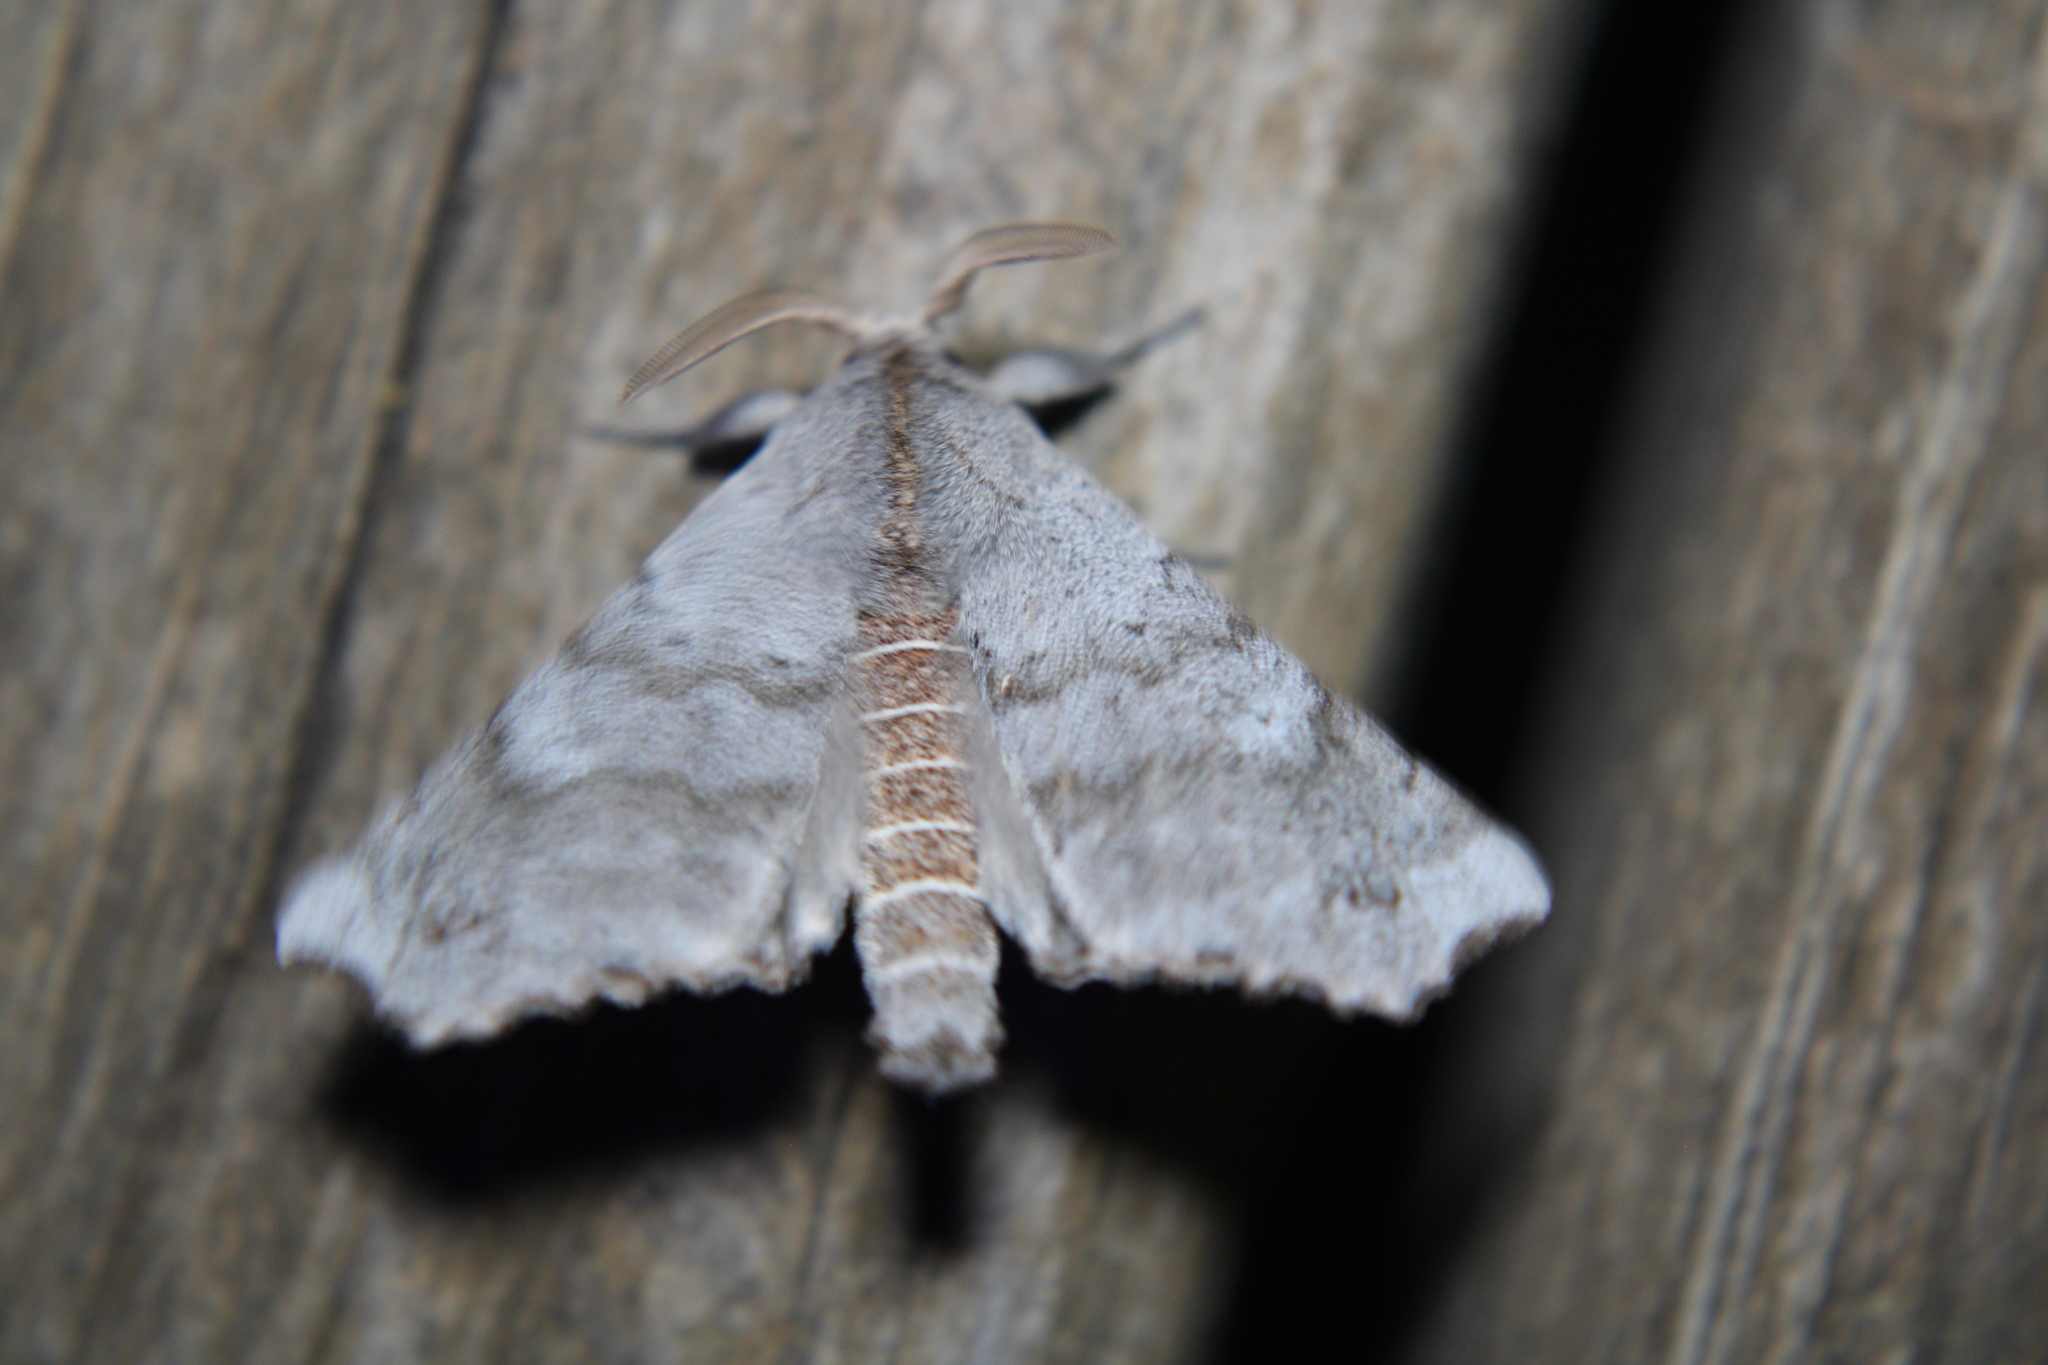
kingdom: Animalia
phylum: Arthropoda
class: Insecta
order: Lepidoptera
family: Apatelodidae
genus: Olceclostera
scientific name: Olceclostera angelica
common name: Angel moth
